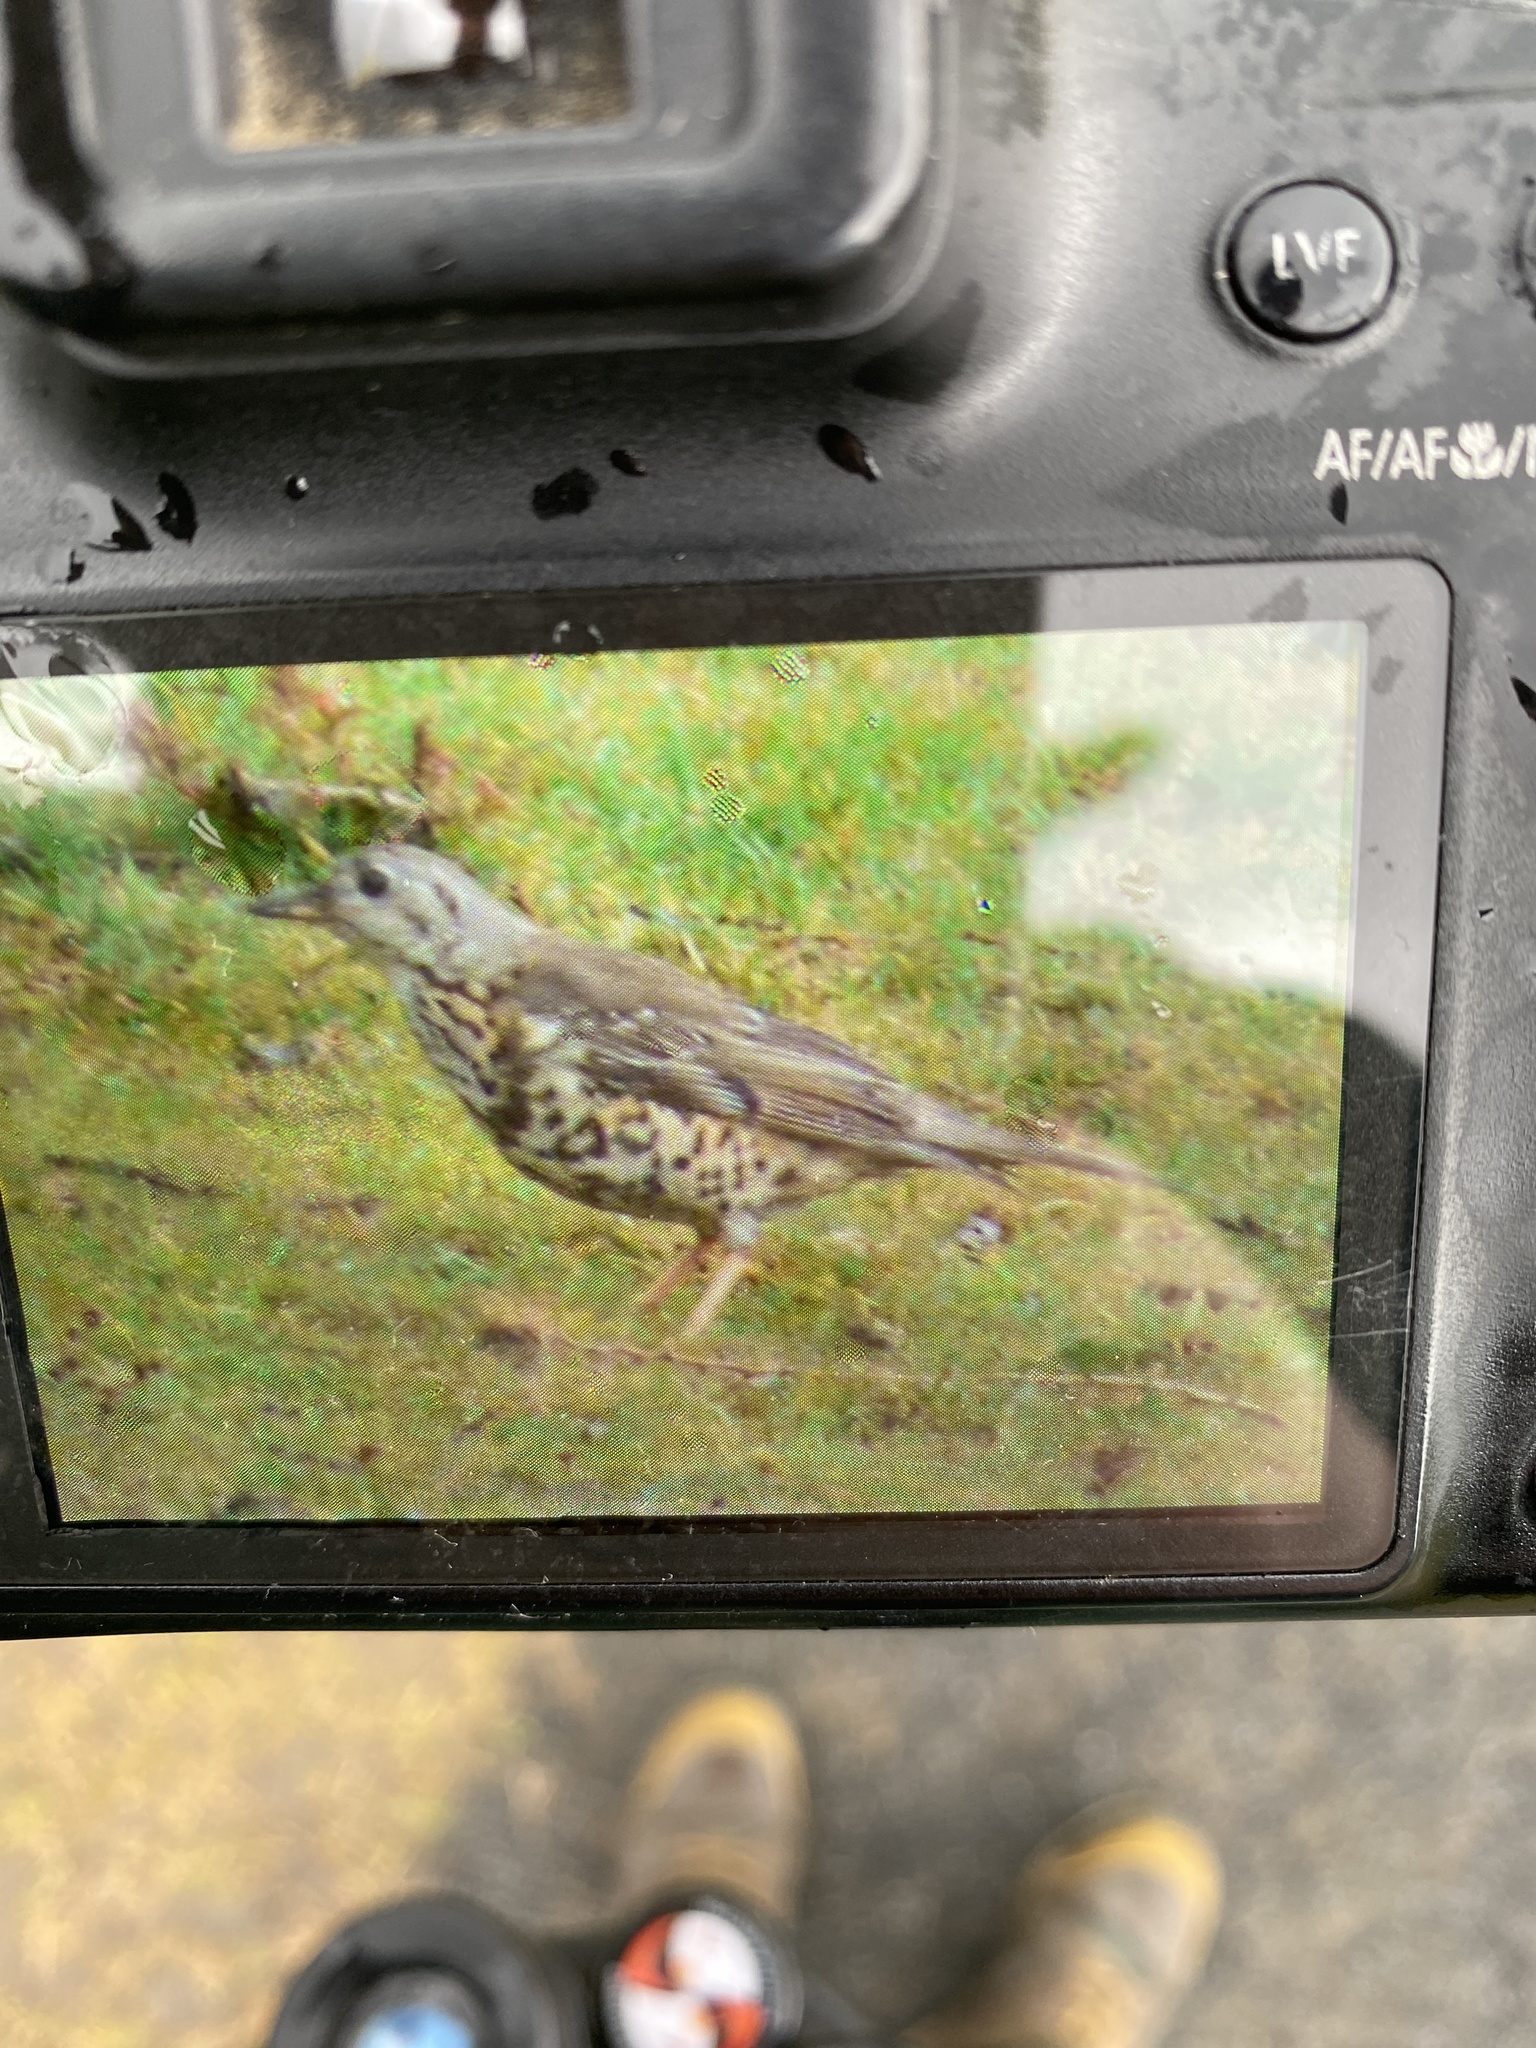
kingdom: Animalia
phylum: Chordata
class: Aves
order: Passeriformes
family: Turdidae
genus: Turdus
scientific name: Turdus viscivorus
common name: Mistle thrush
